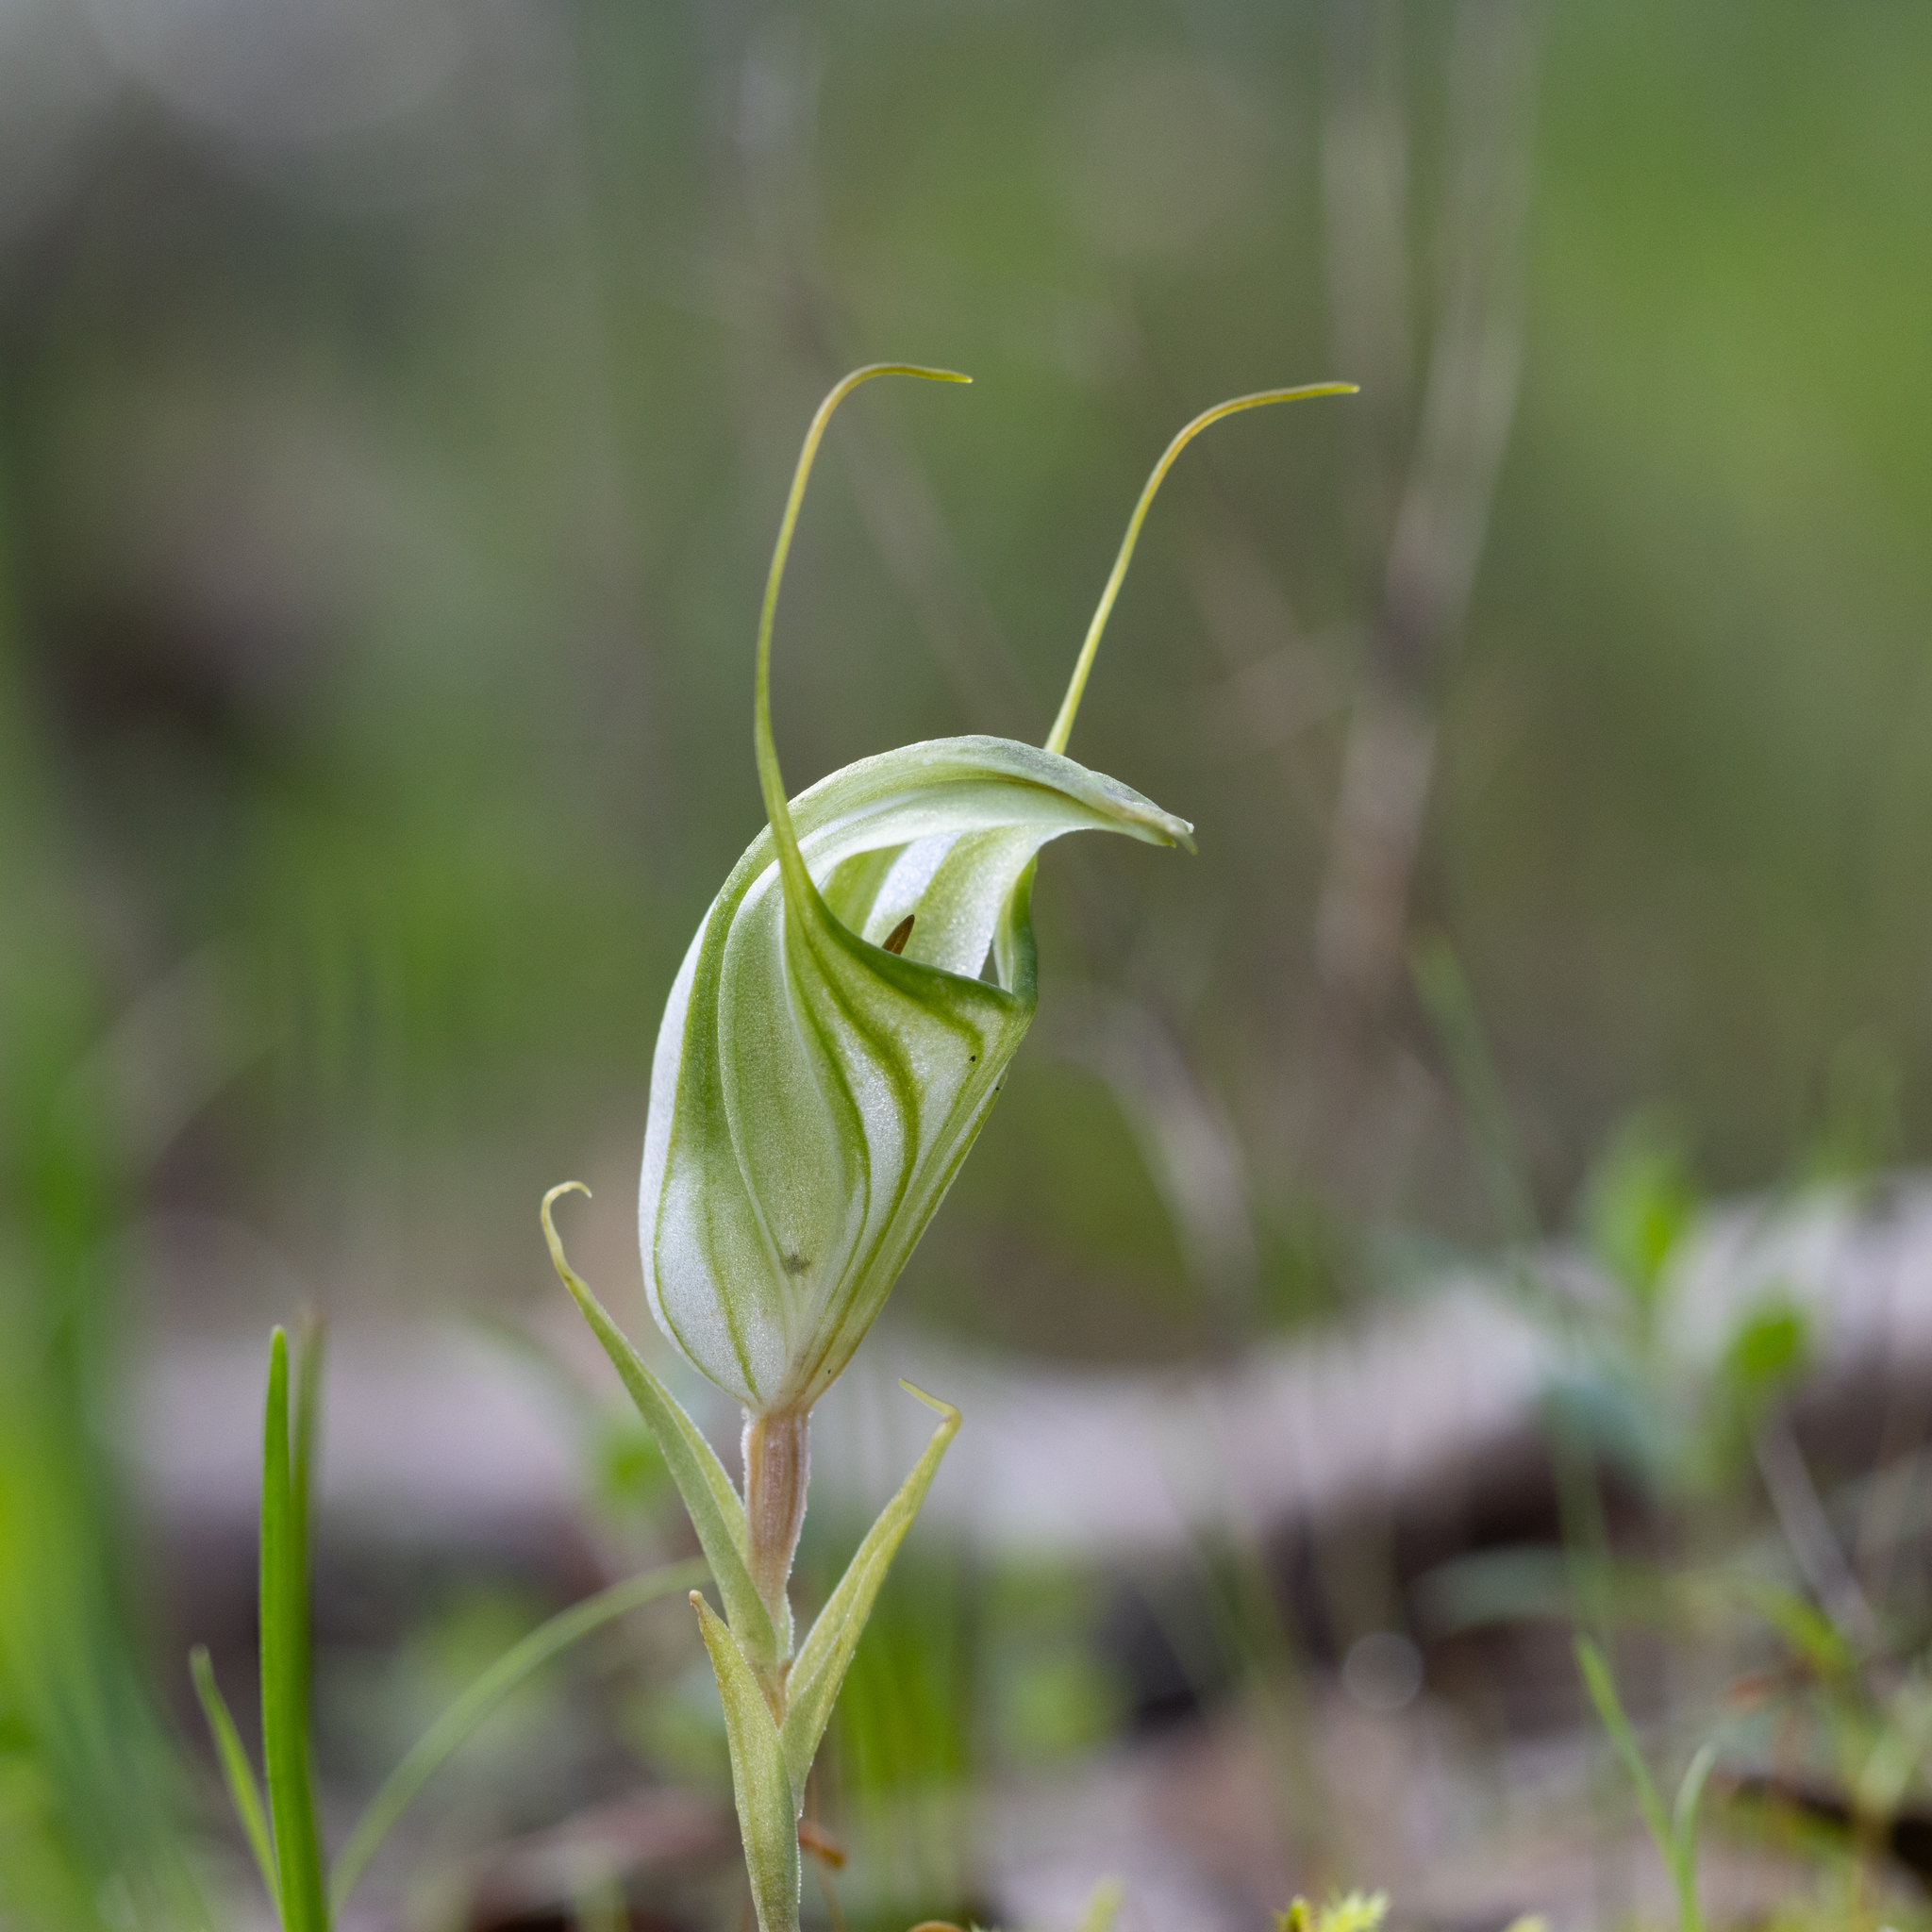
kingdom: Plantae
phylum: Tracheophyta
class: Liliopsida
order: Asparagales
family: Orchidaceae
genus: Pterostylis
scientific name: Pterostylis robusta
